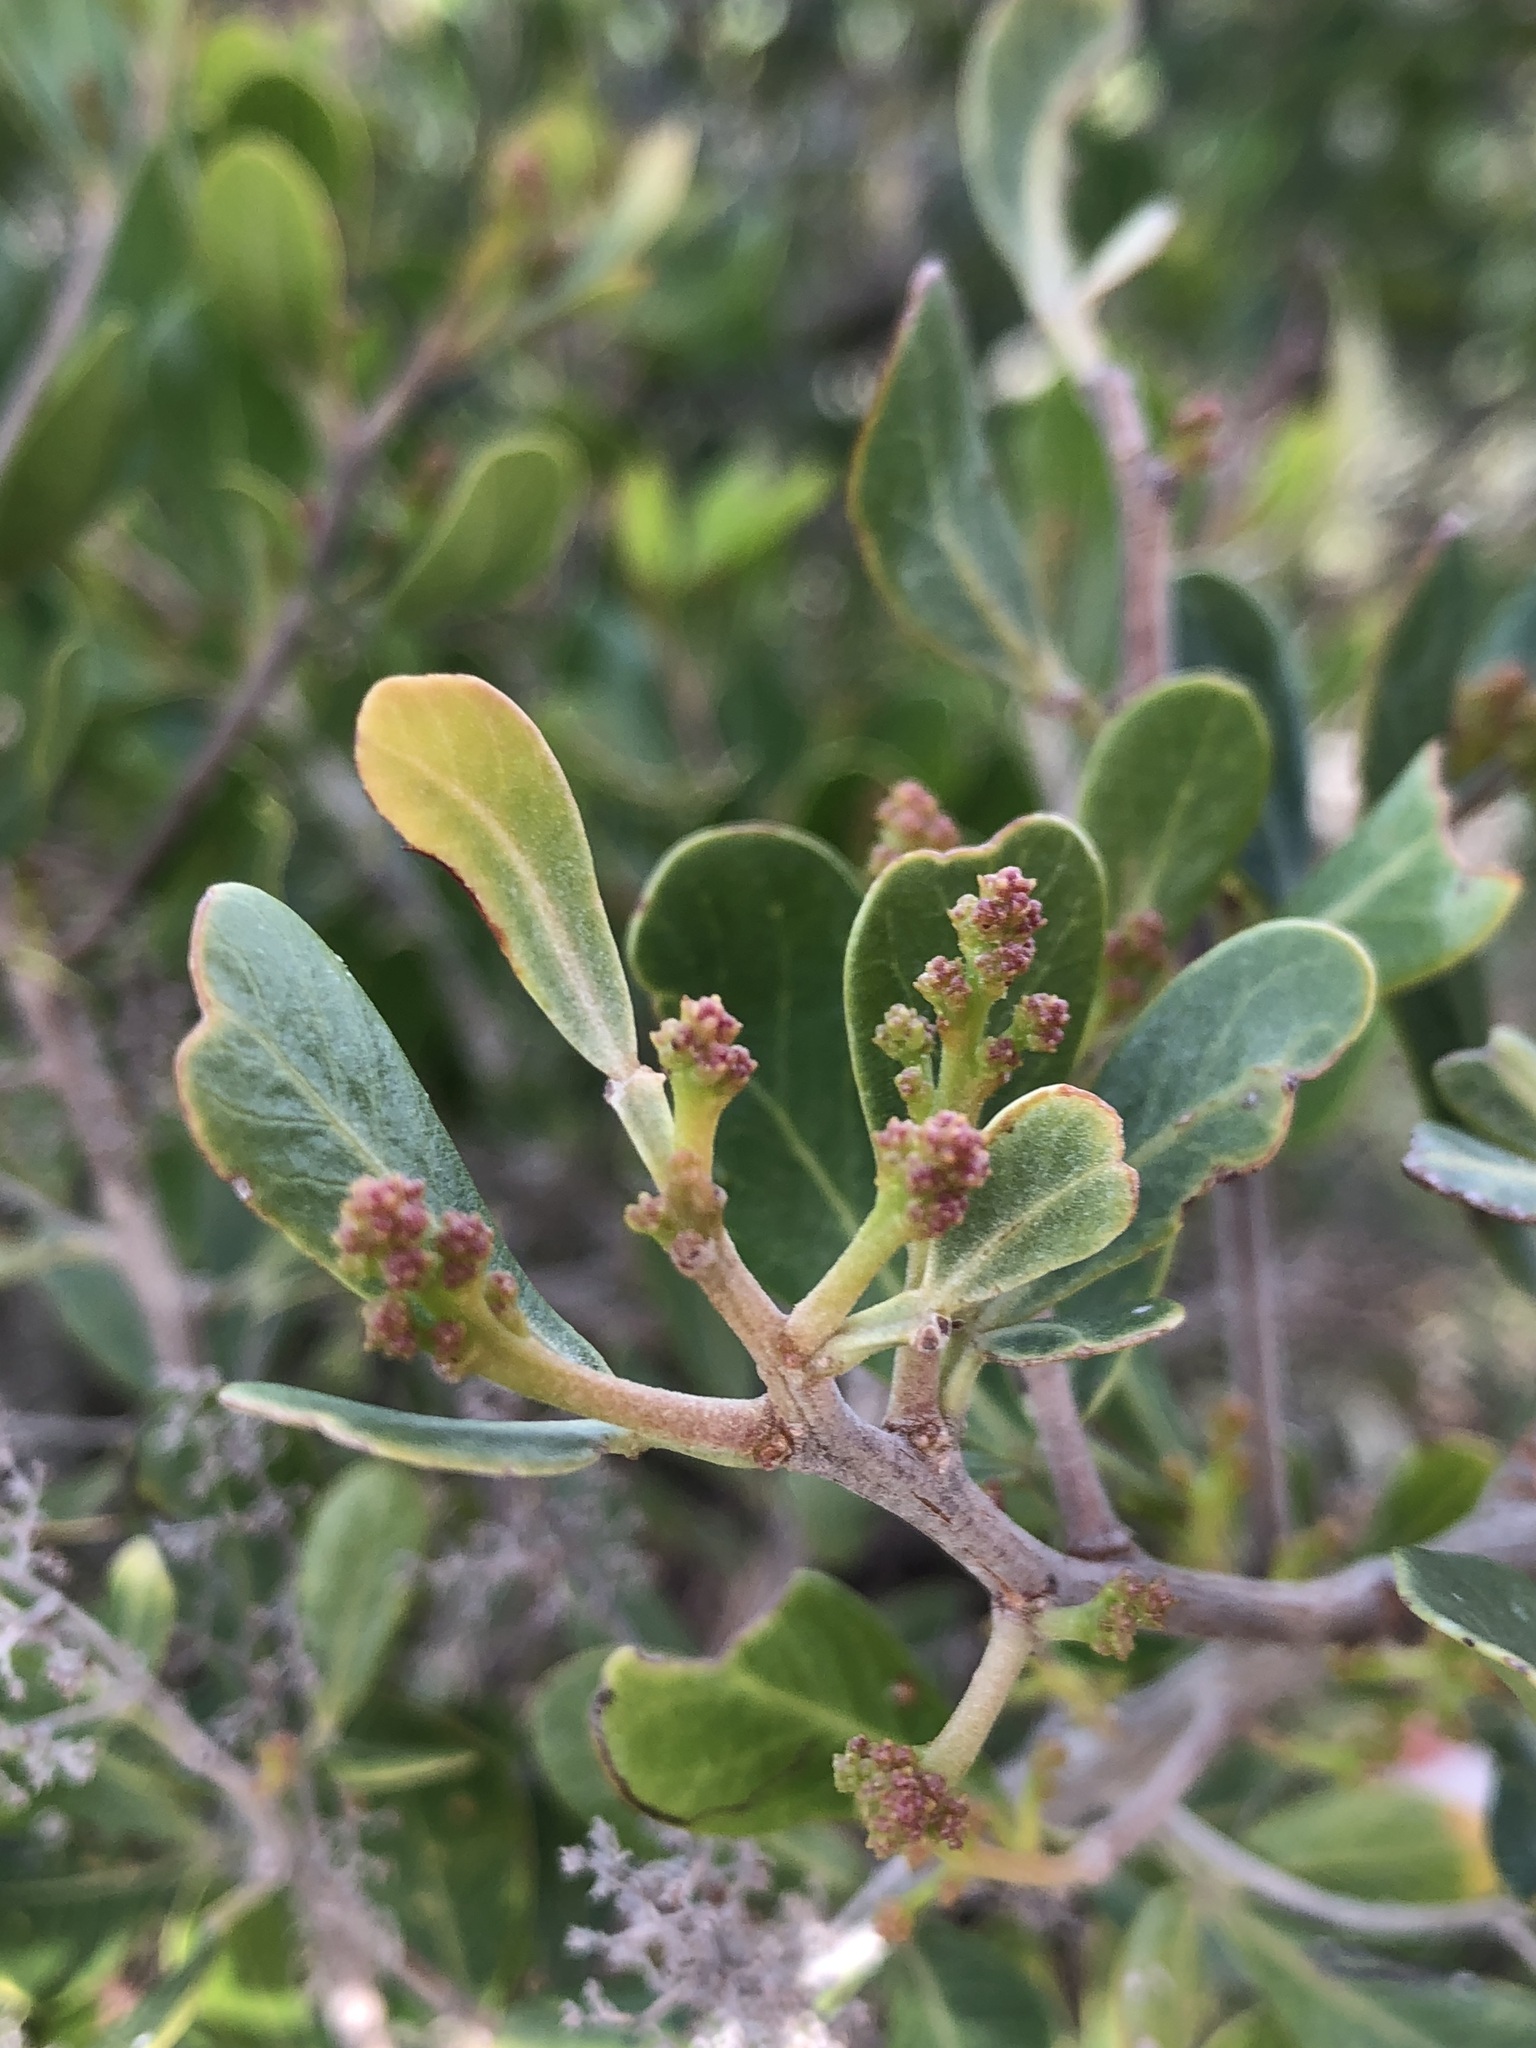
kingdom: Plantae
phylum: Tracheophyta
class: Magnoliopsida
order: Sapindales
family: Anacardiaceae
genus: Searsia
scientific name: Searsia lucida
